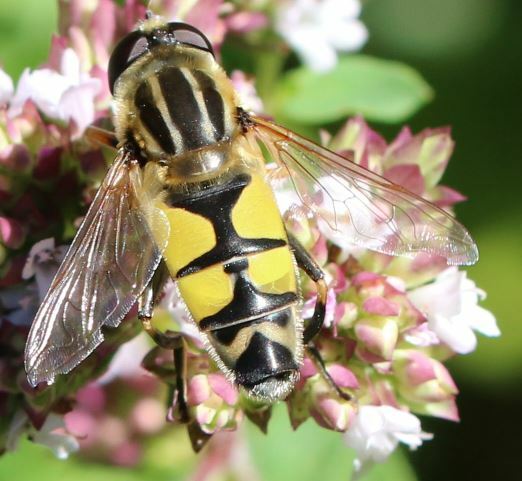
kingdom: Animalia
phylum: Arthropoda
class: Insecta
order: Diptera
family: Syrphidae
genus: Helophilus
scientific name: Helophilus trivittatus
